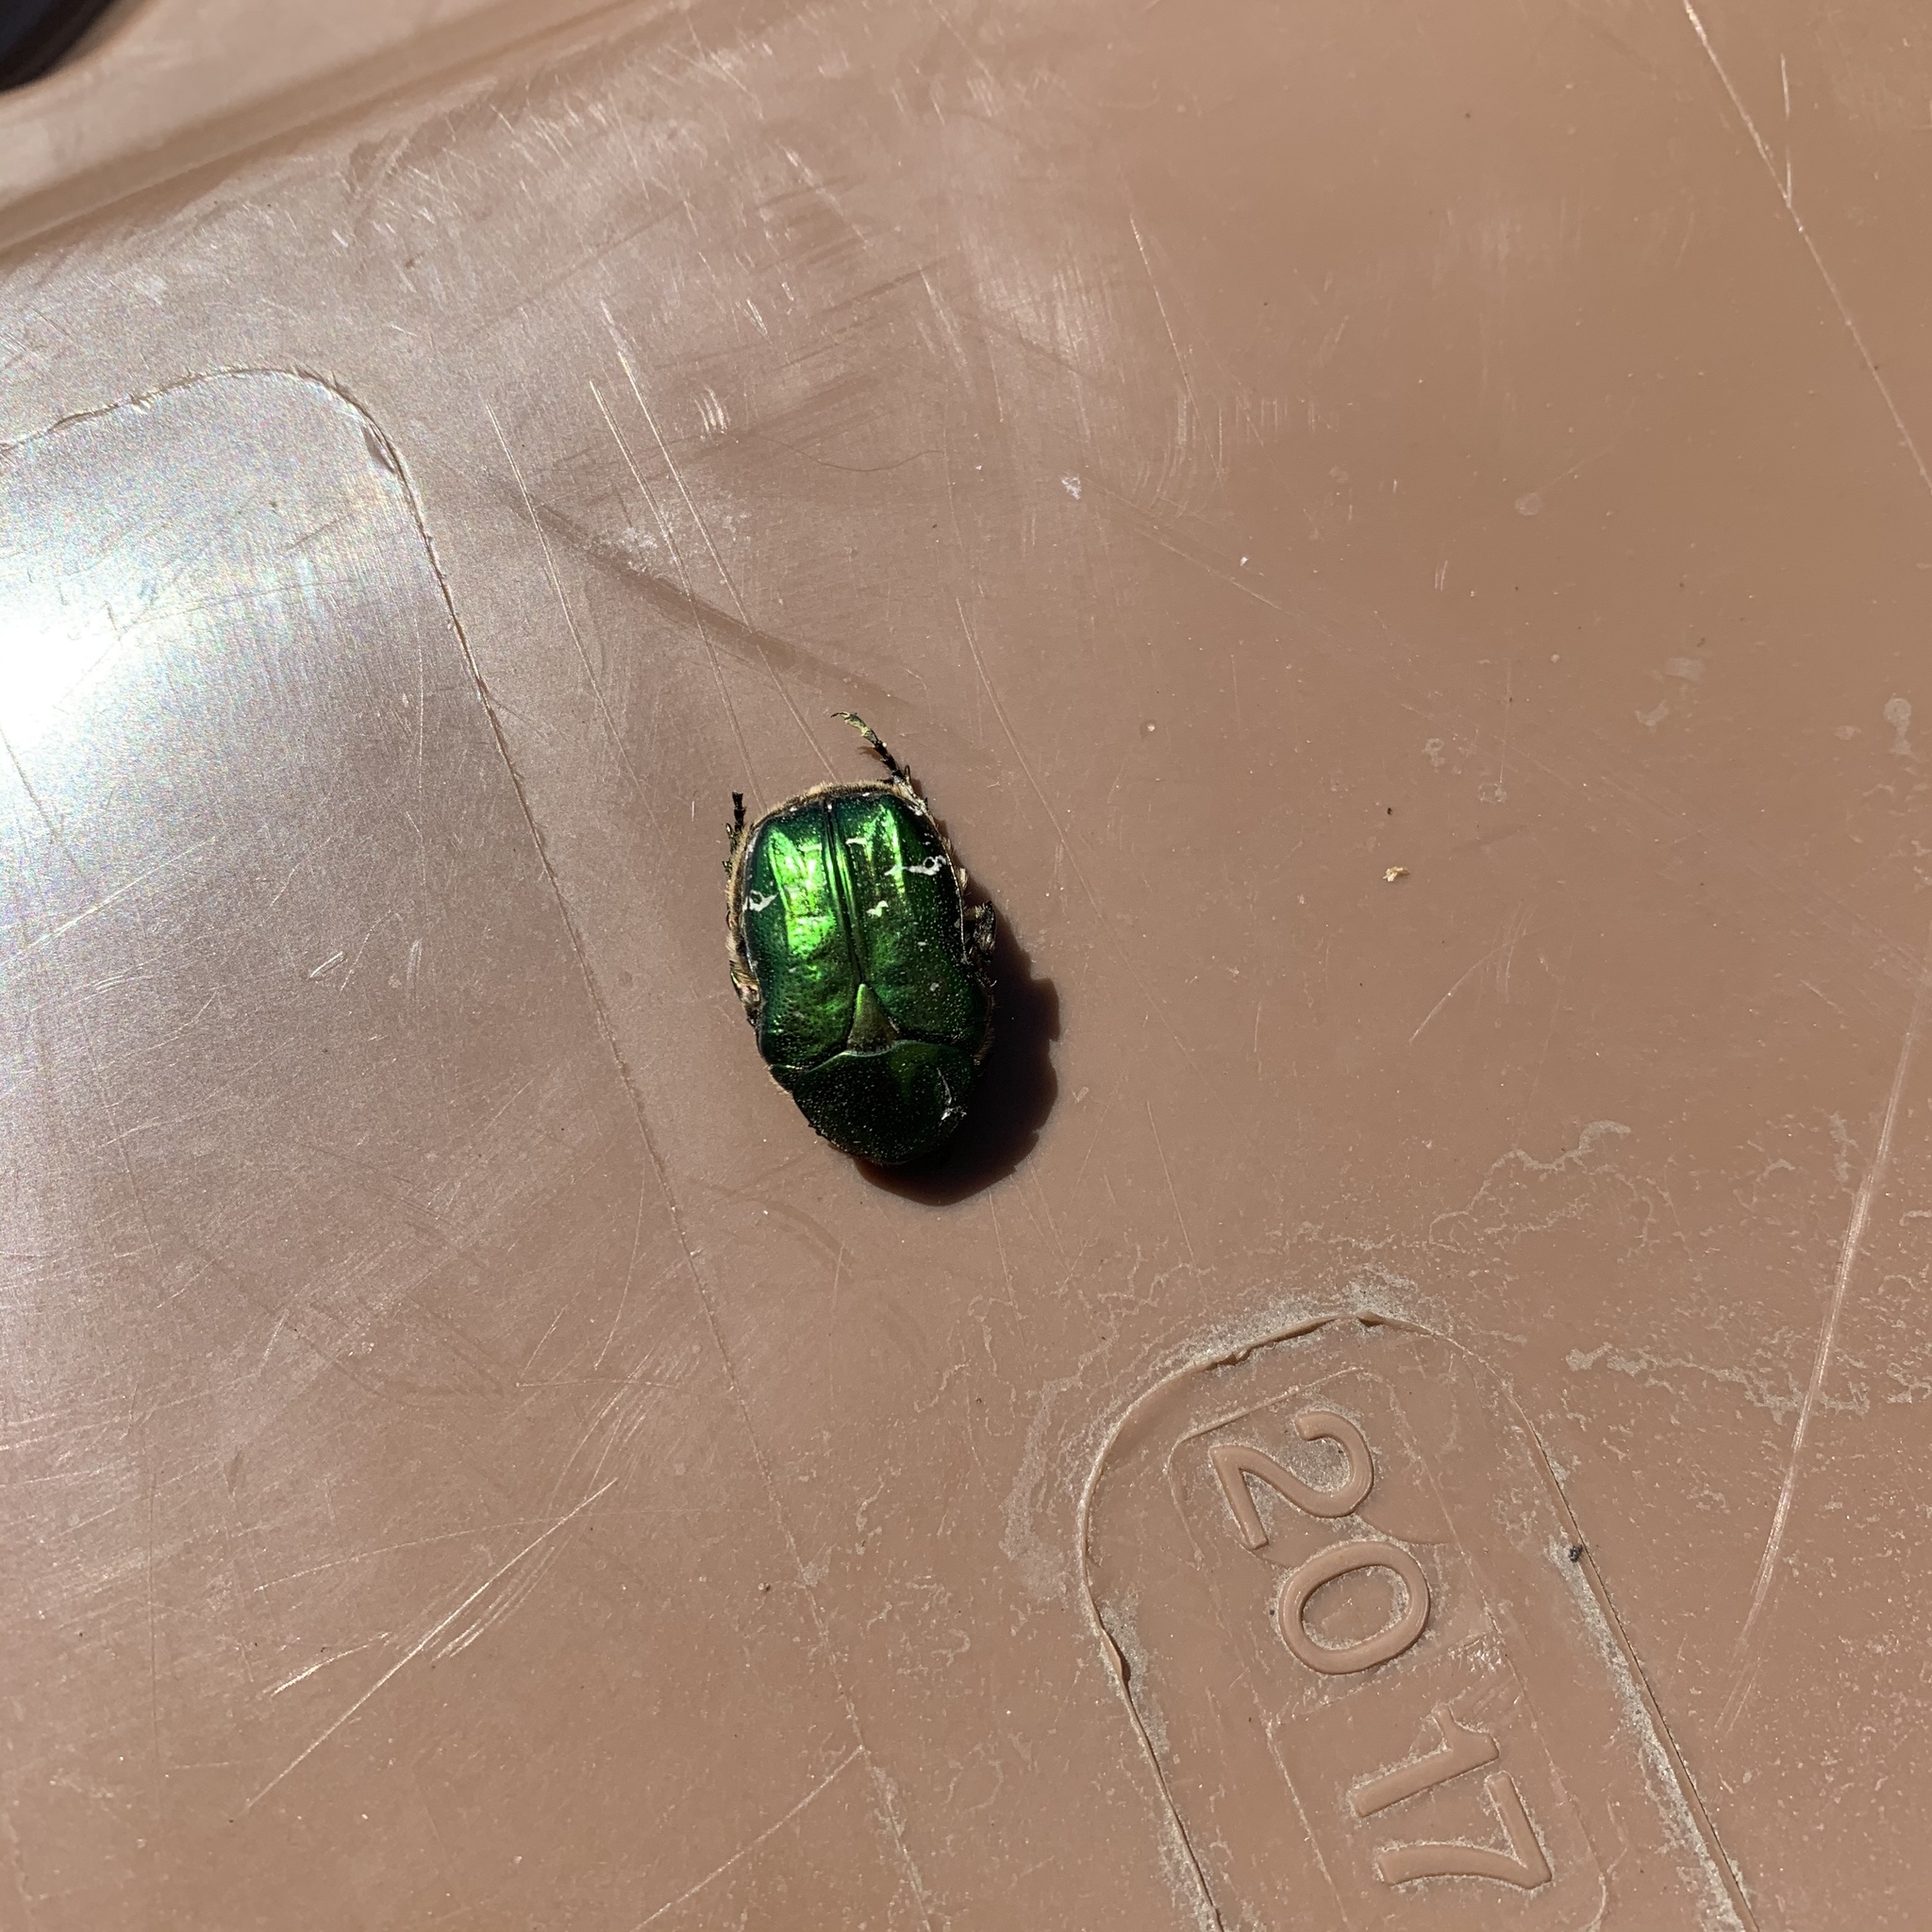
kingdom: Animalia
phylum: Arthropoda
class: Insecta
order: Coleoptera
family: Scarabaeidae
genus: Cetonia
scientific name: Cetonia aurata
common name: Rose chafer
